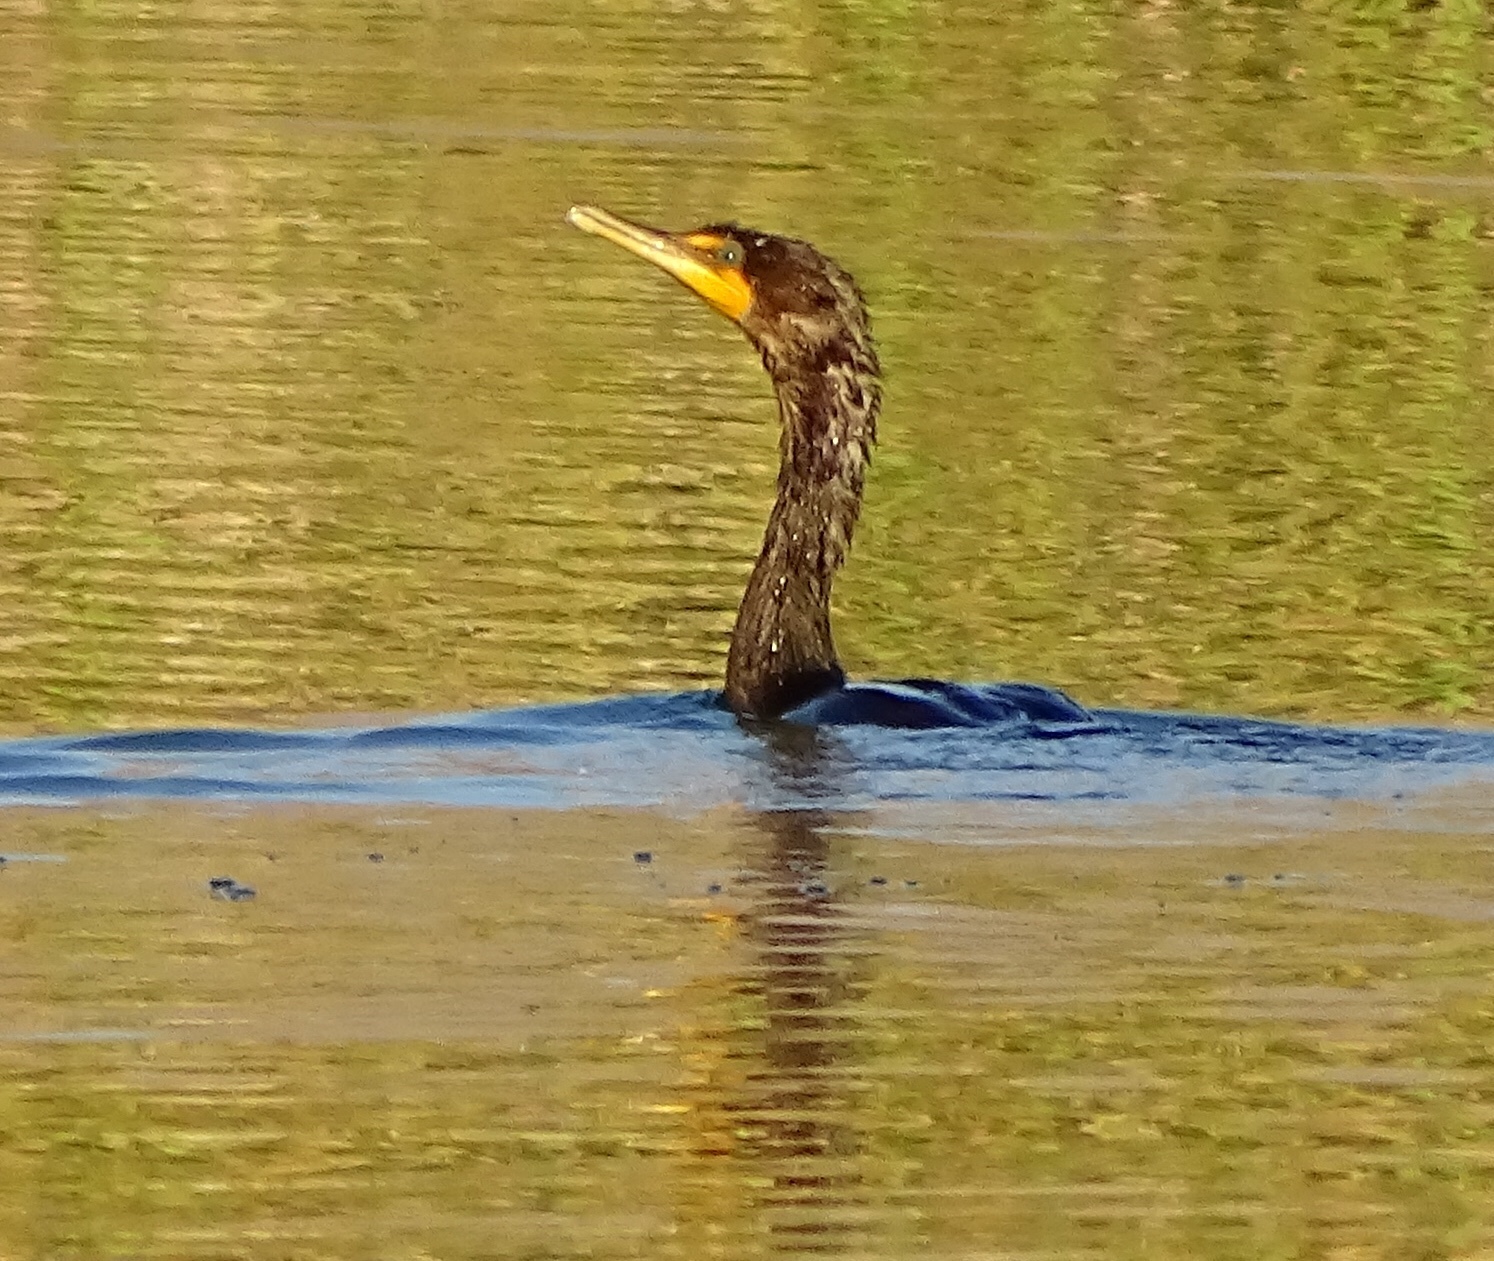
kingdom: Animalia
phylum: Chordata
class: Aves
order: Suliformes
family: Phalacrocoracidae
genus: Phalacrocorax
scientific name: Phalacrocorax auritus
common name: Double-crested cormorant
